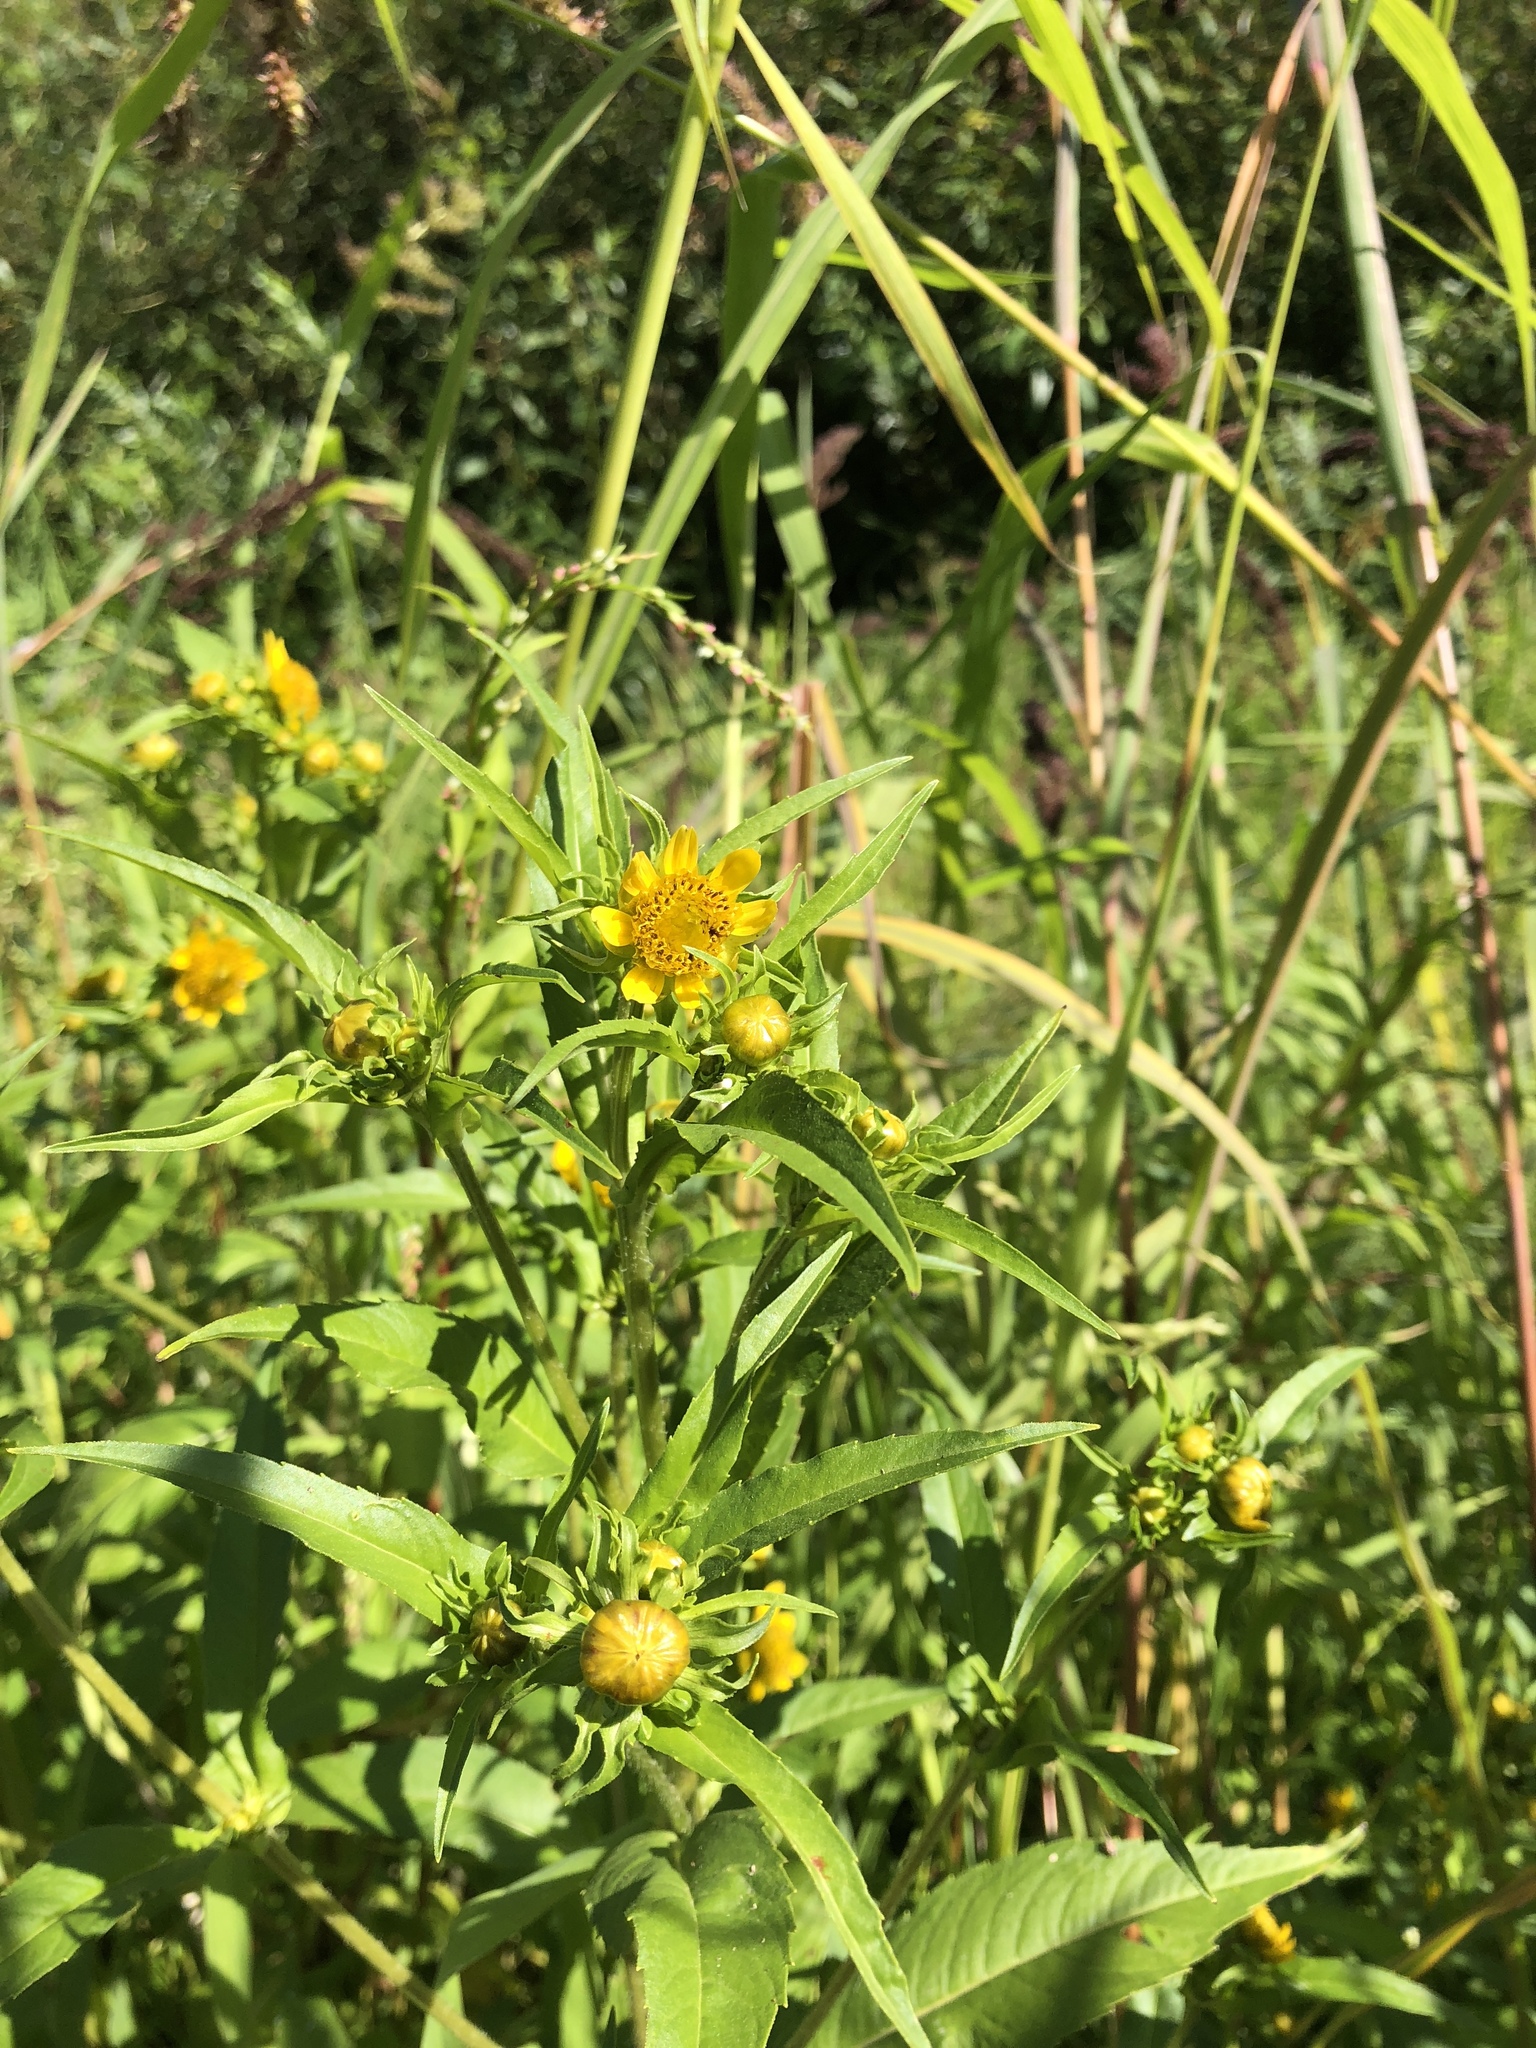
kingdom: Plantae
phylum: Tracheophyta
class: Magnoliopsida
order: Asterales
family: Asteraceae
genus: Bidens
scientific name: Bidens cernua
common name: Nodding bur-marigold
